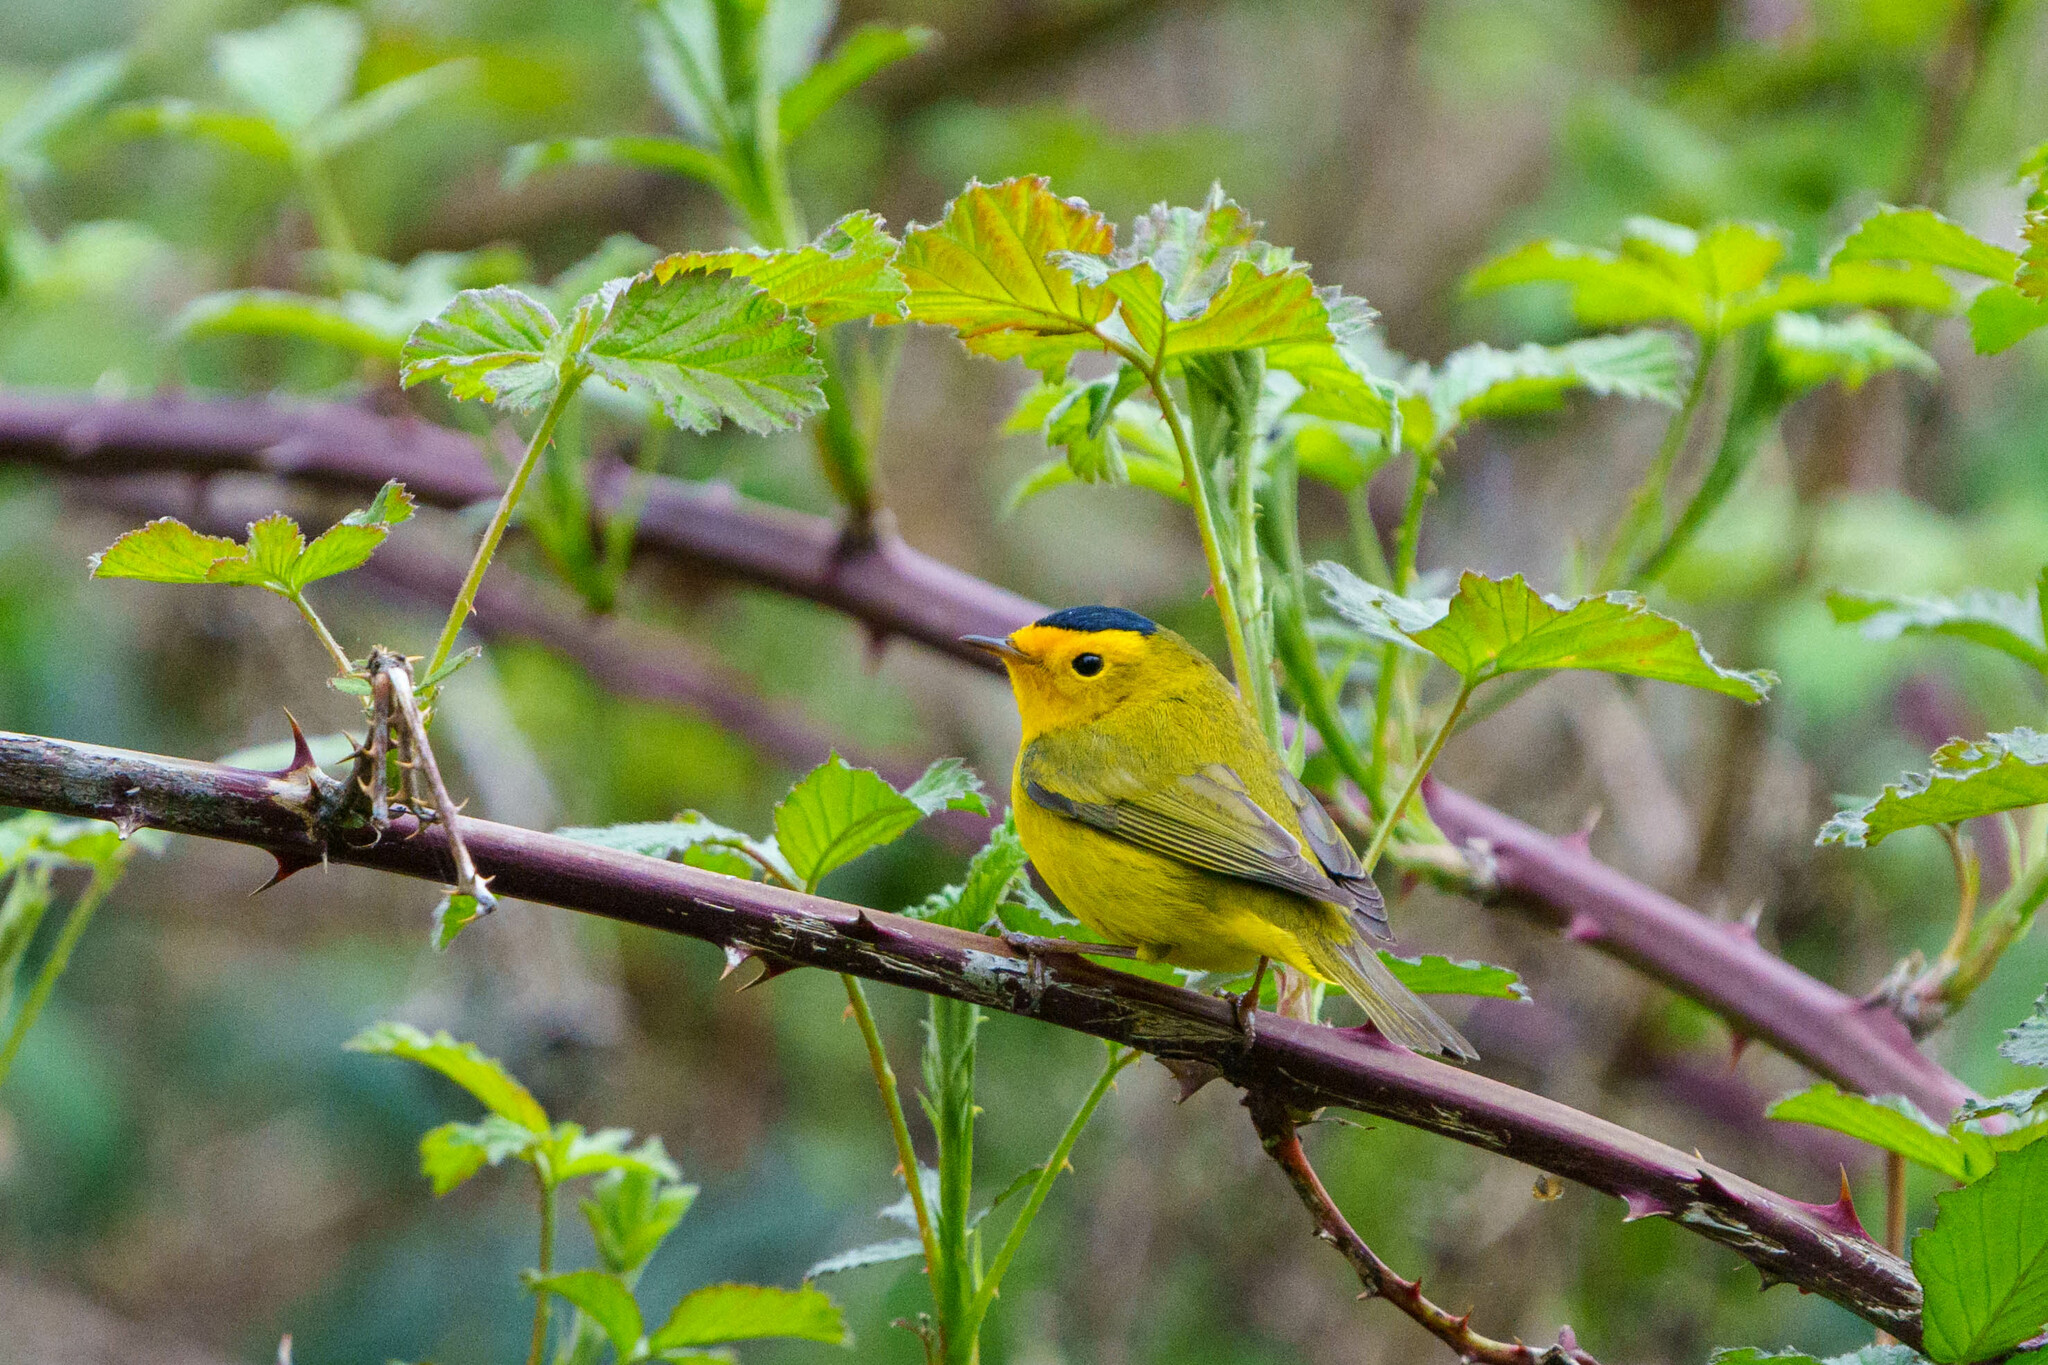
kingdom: Animalia
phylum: Chordata
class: Aves
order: Passeriformes
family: Parulidae
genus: Cardellina
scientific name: Cardellina pusilla
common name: Wilson's warbler
